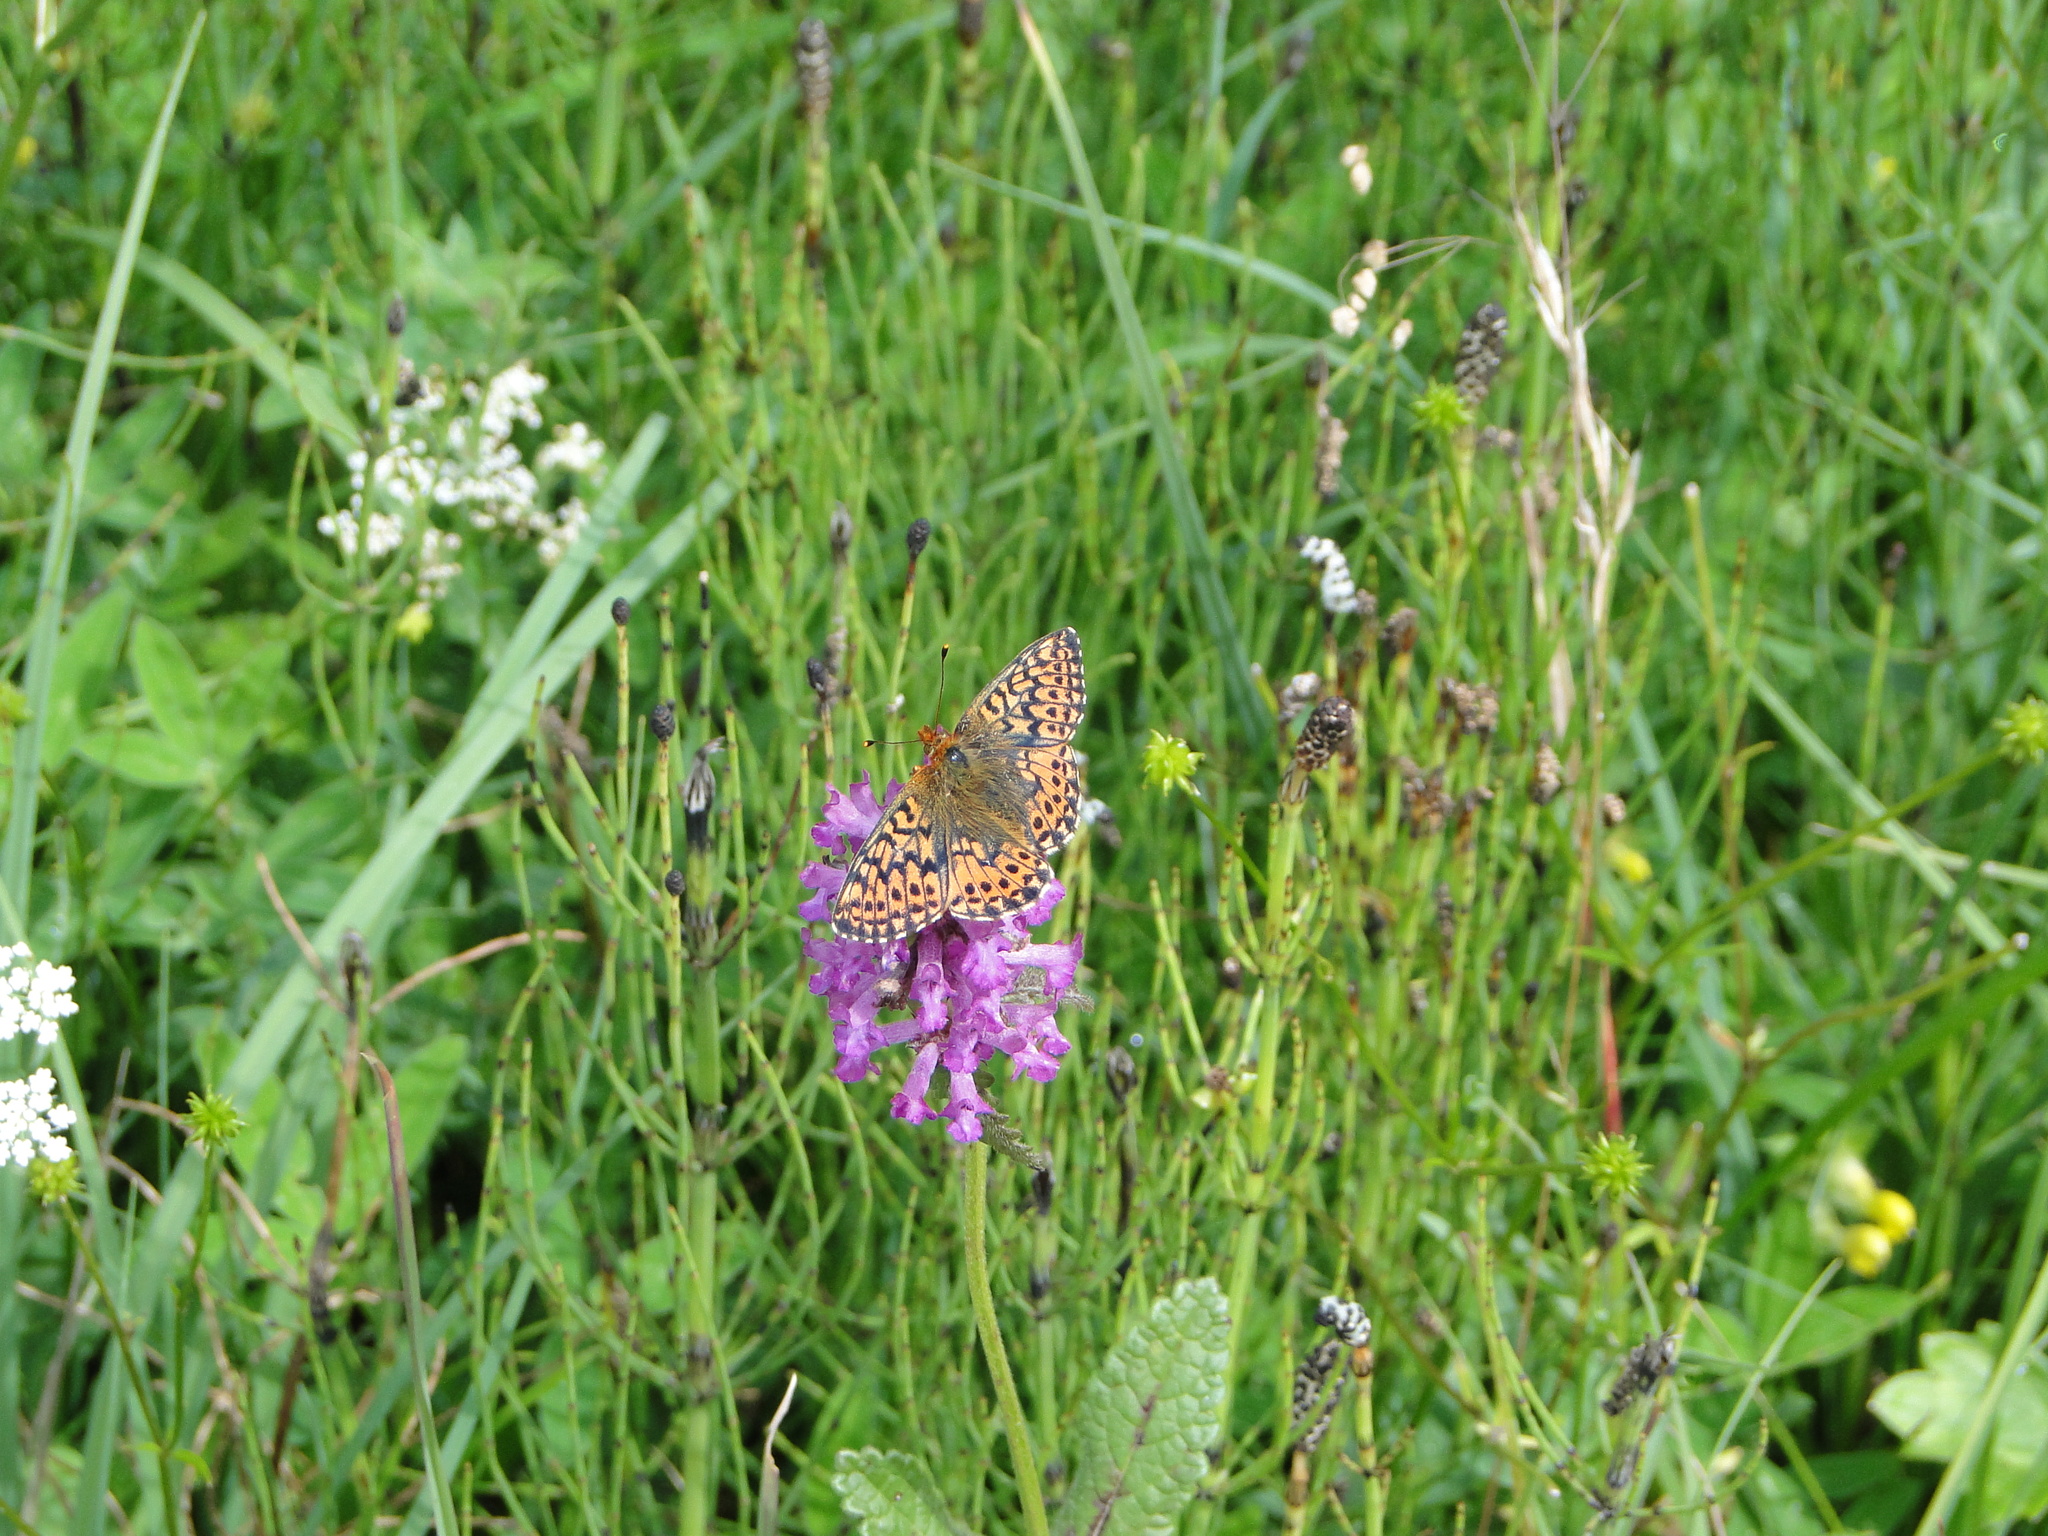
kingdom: Animalia
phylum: Arthropoda
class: Insecta
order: Lepidoptera
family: Nymphalidae
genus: Boloria
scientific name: Boloria aquilonaris
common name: Cranberry fritillary
